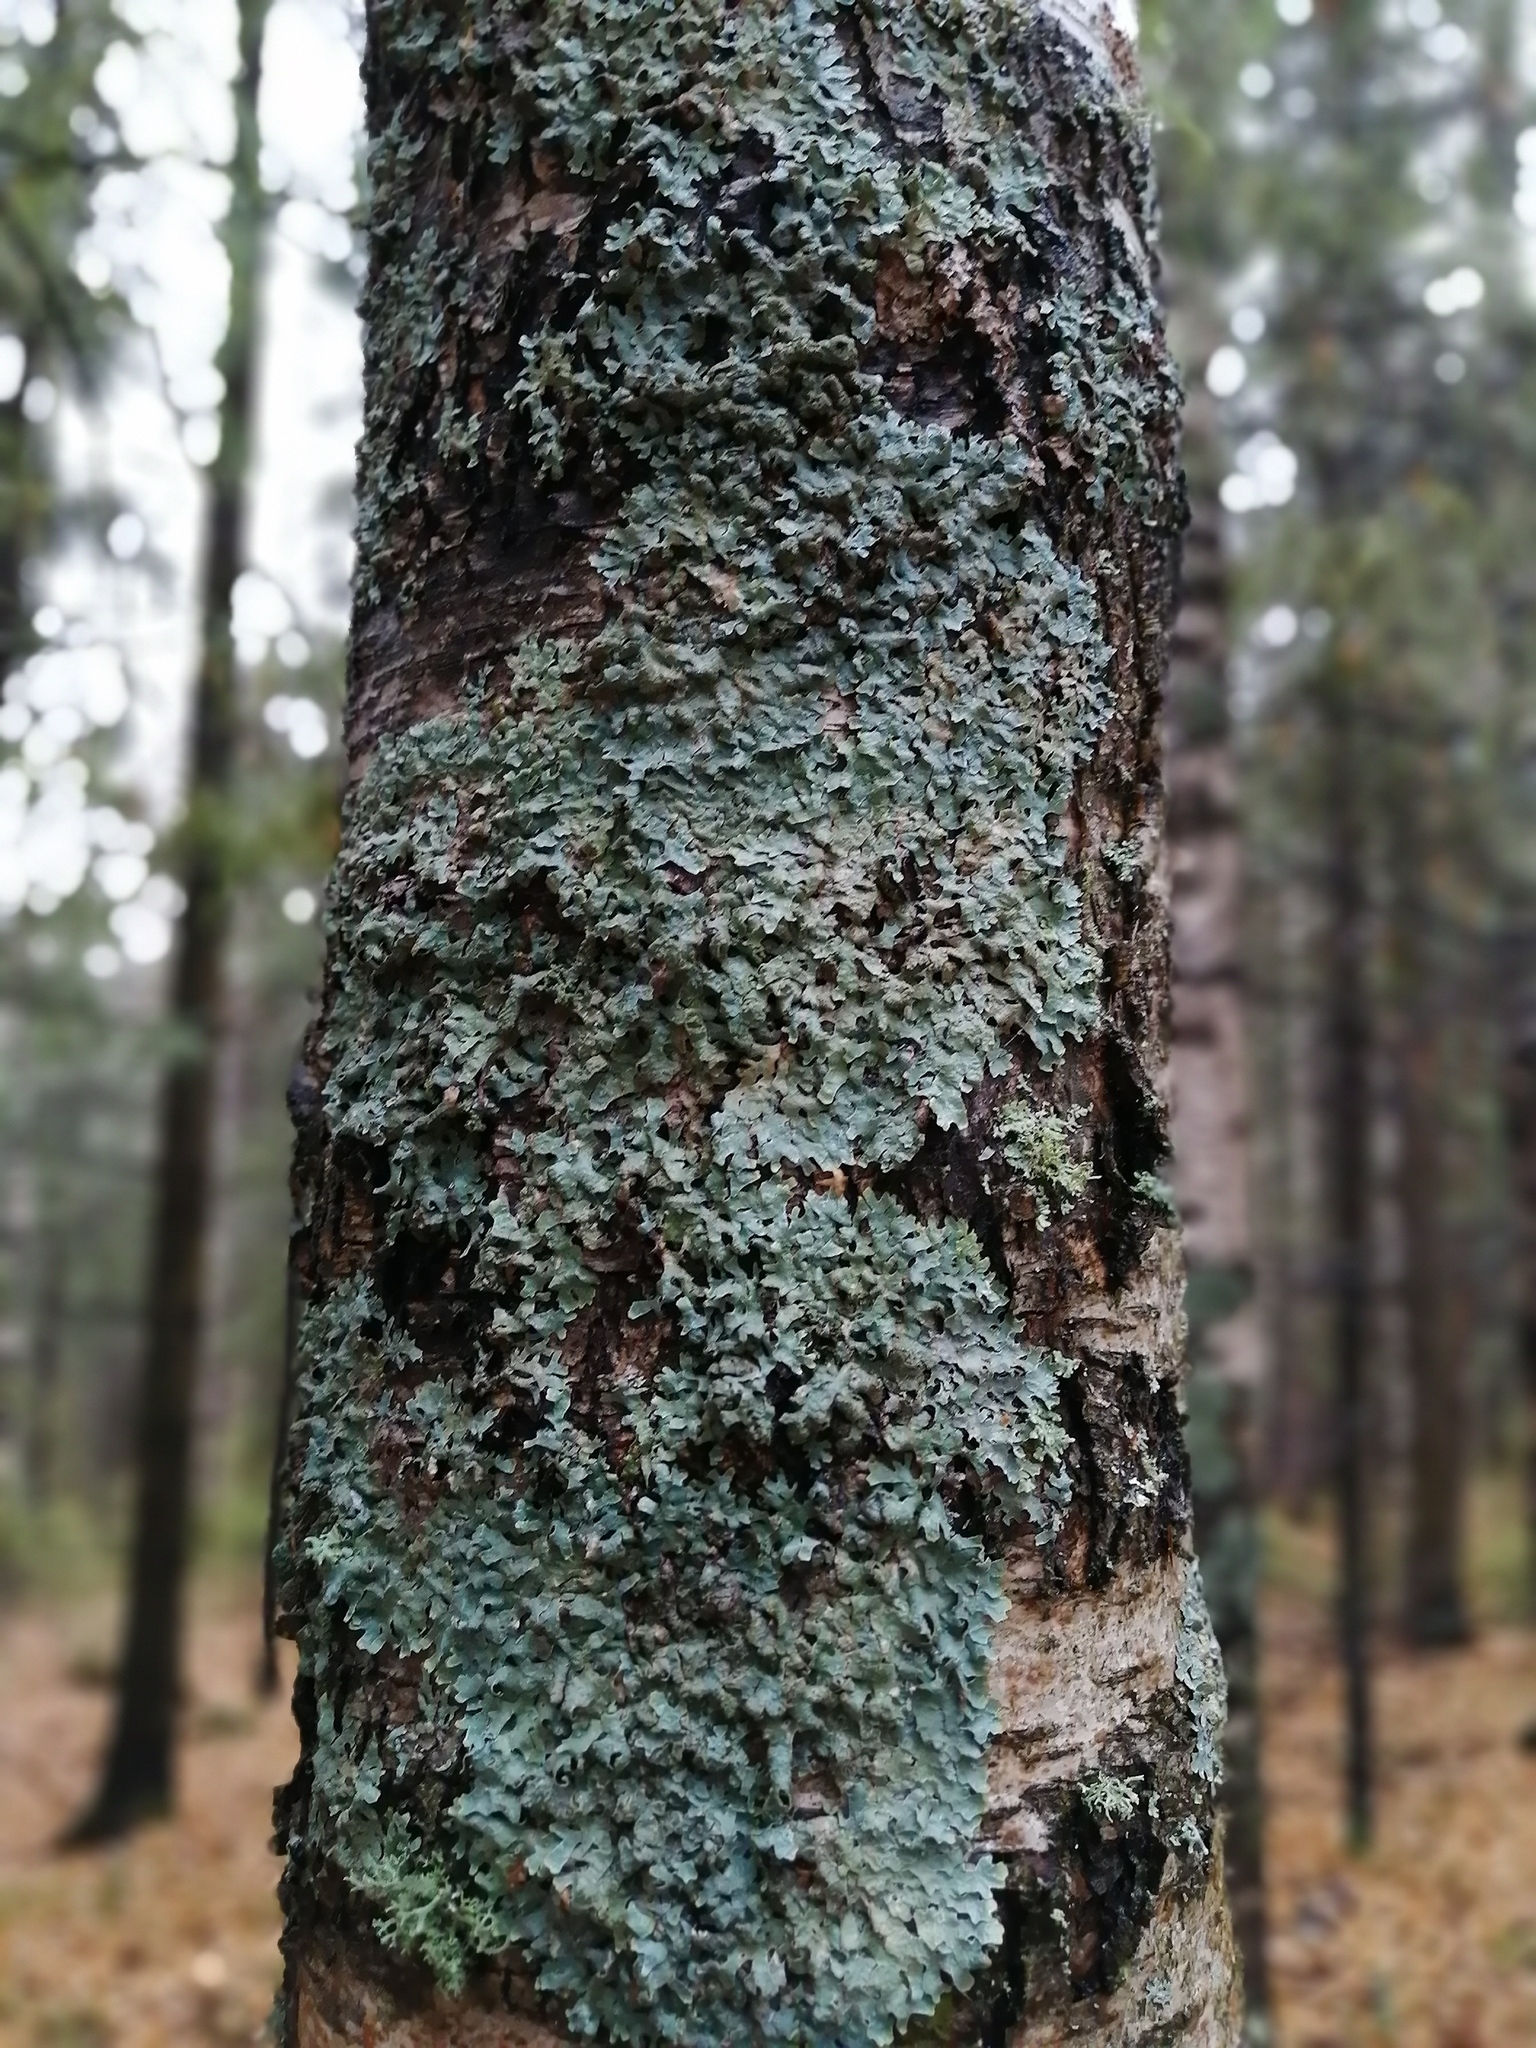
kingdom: Fungi
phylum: Ascomycota
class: Lecanoromycetes
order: Lecanorales
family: Parmeliaceae
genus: Parmelia
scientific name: Parmelia sulcata
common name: Netted shield lichen
